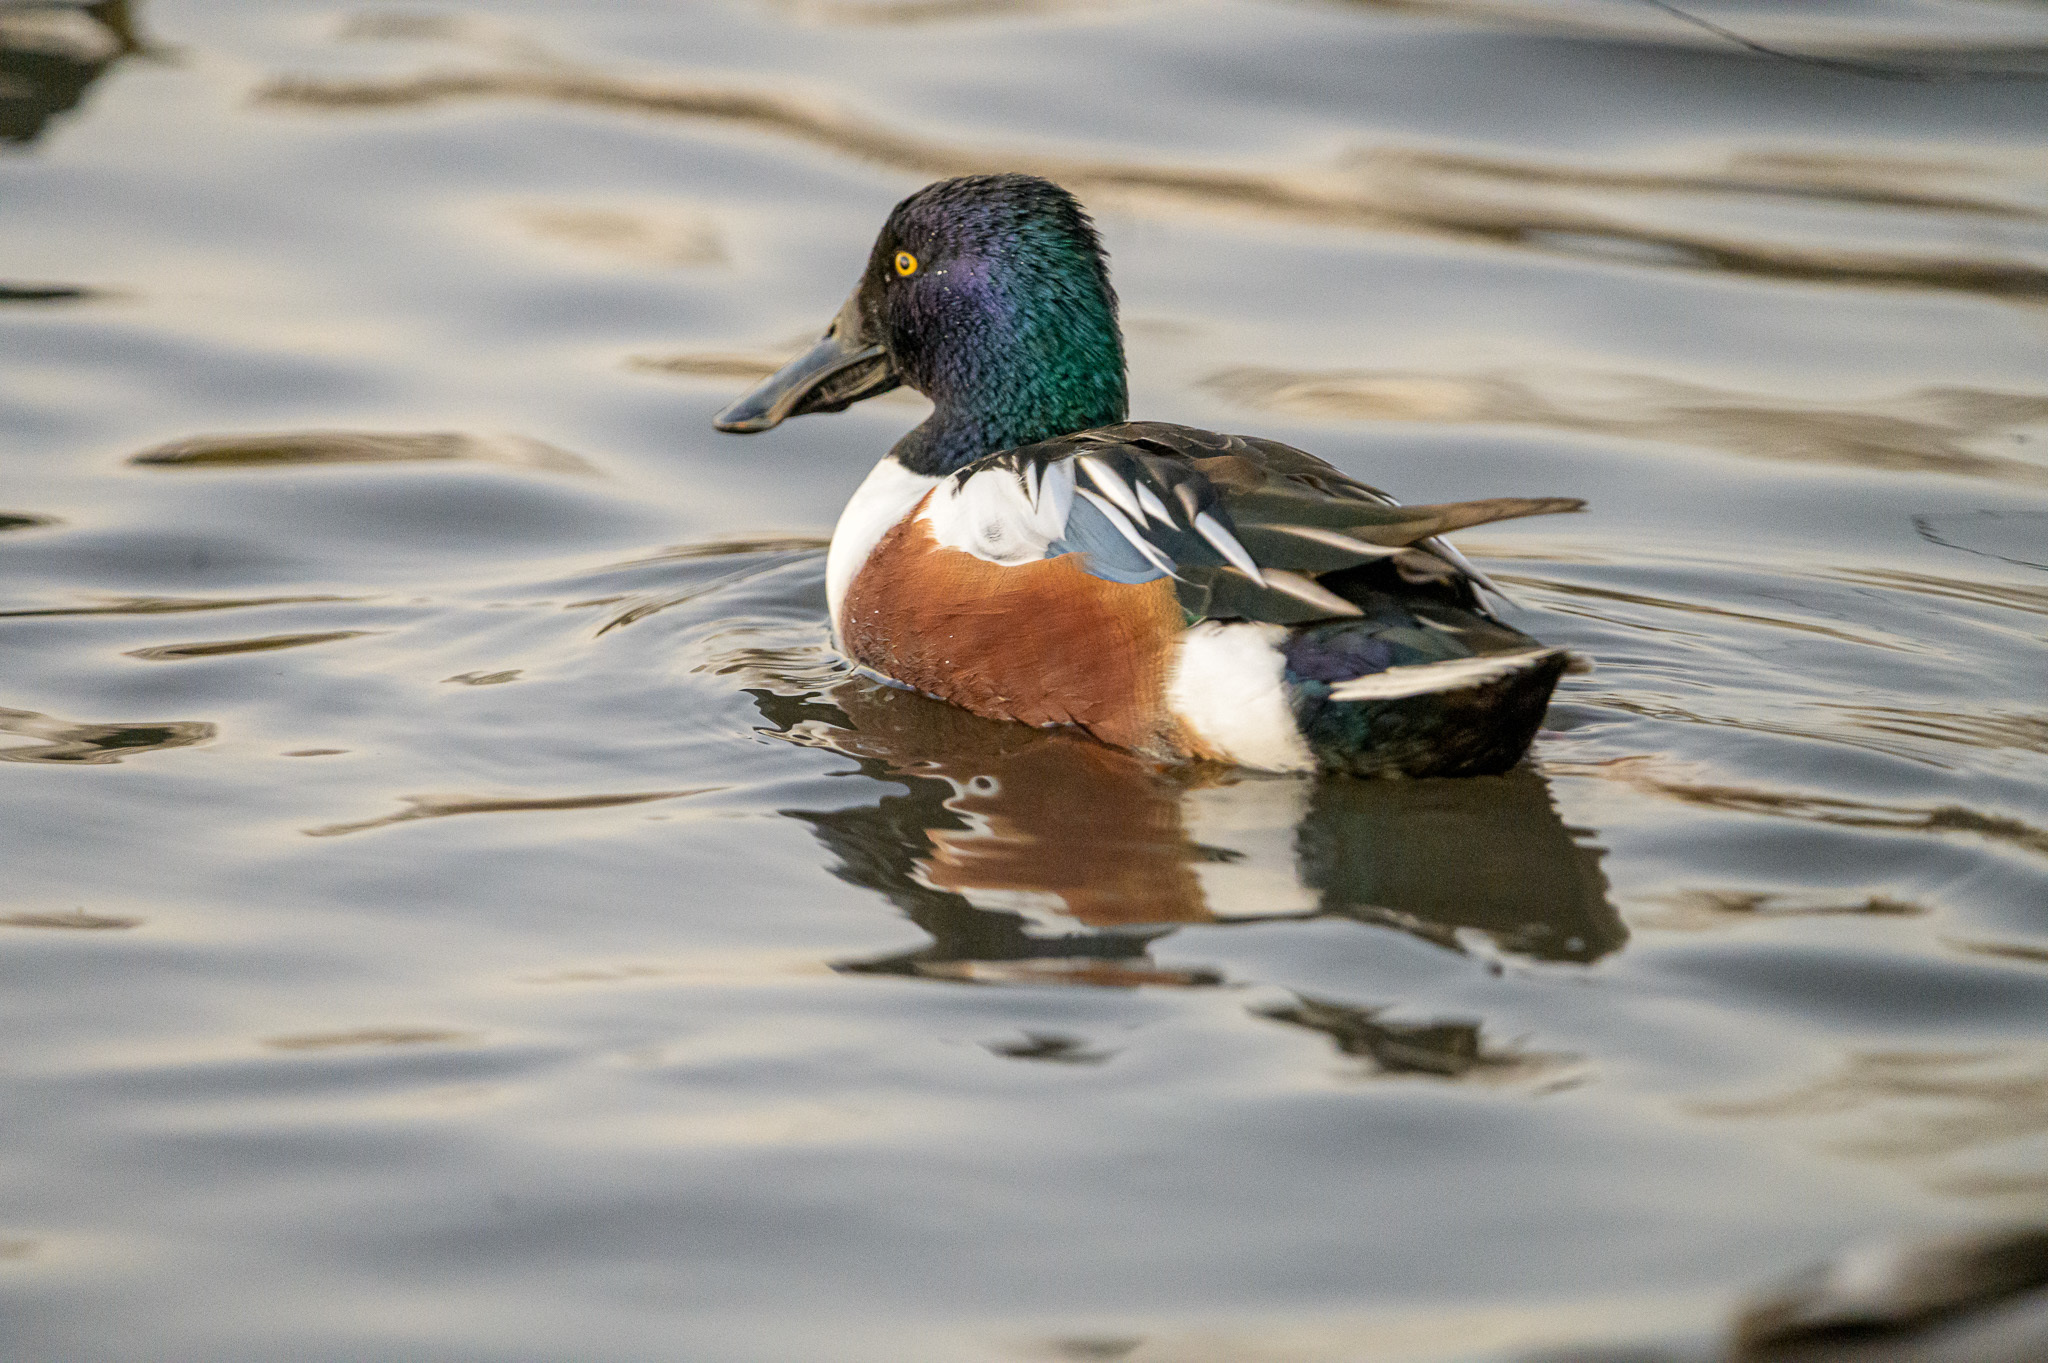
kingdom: Animalia
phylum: Chordata
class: Aves
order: Anseriformes
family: Anatidae
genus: Spatula
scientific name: Spatula clypeata
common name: Northern shoveler
